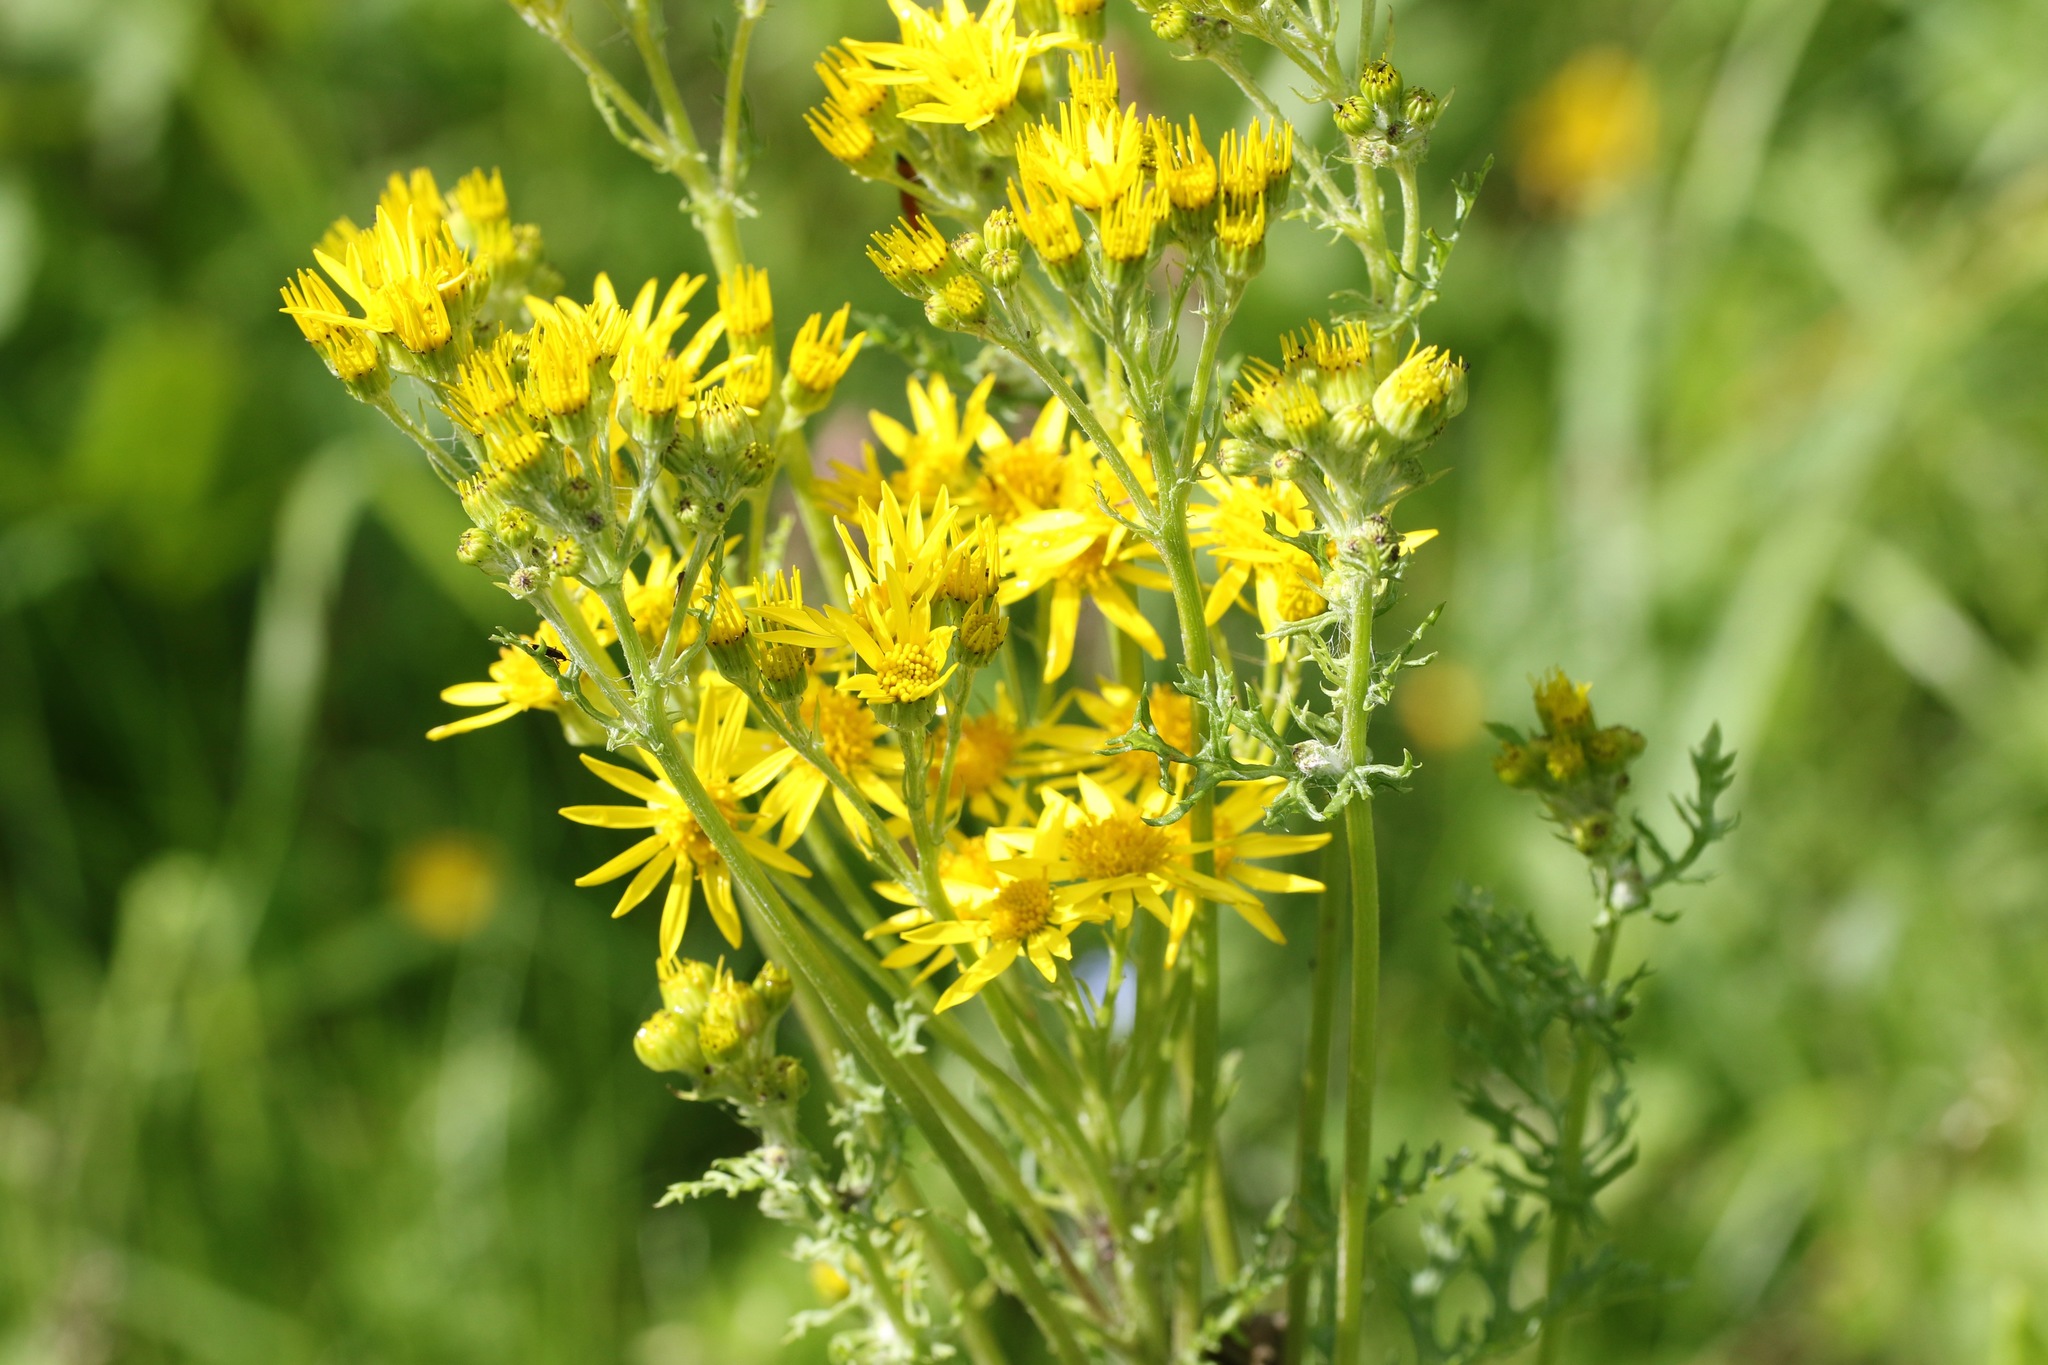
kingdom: Plantae
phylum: Tracheophyta
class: Magnoliopsida
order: Asterales
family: Asteraceae
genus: Jacobaea
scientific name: Jacobaea vulgaris
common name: Stinking willie
